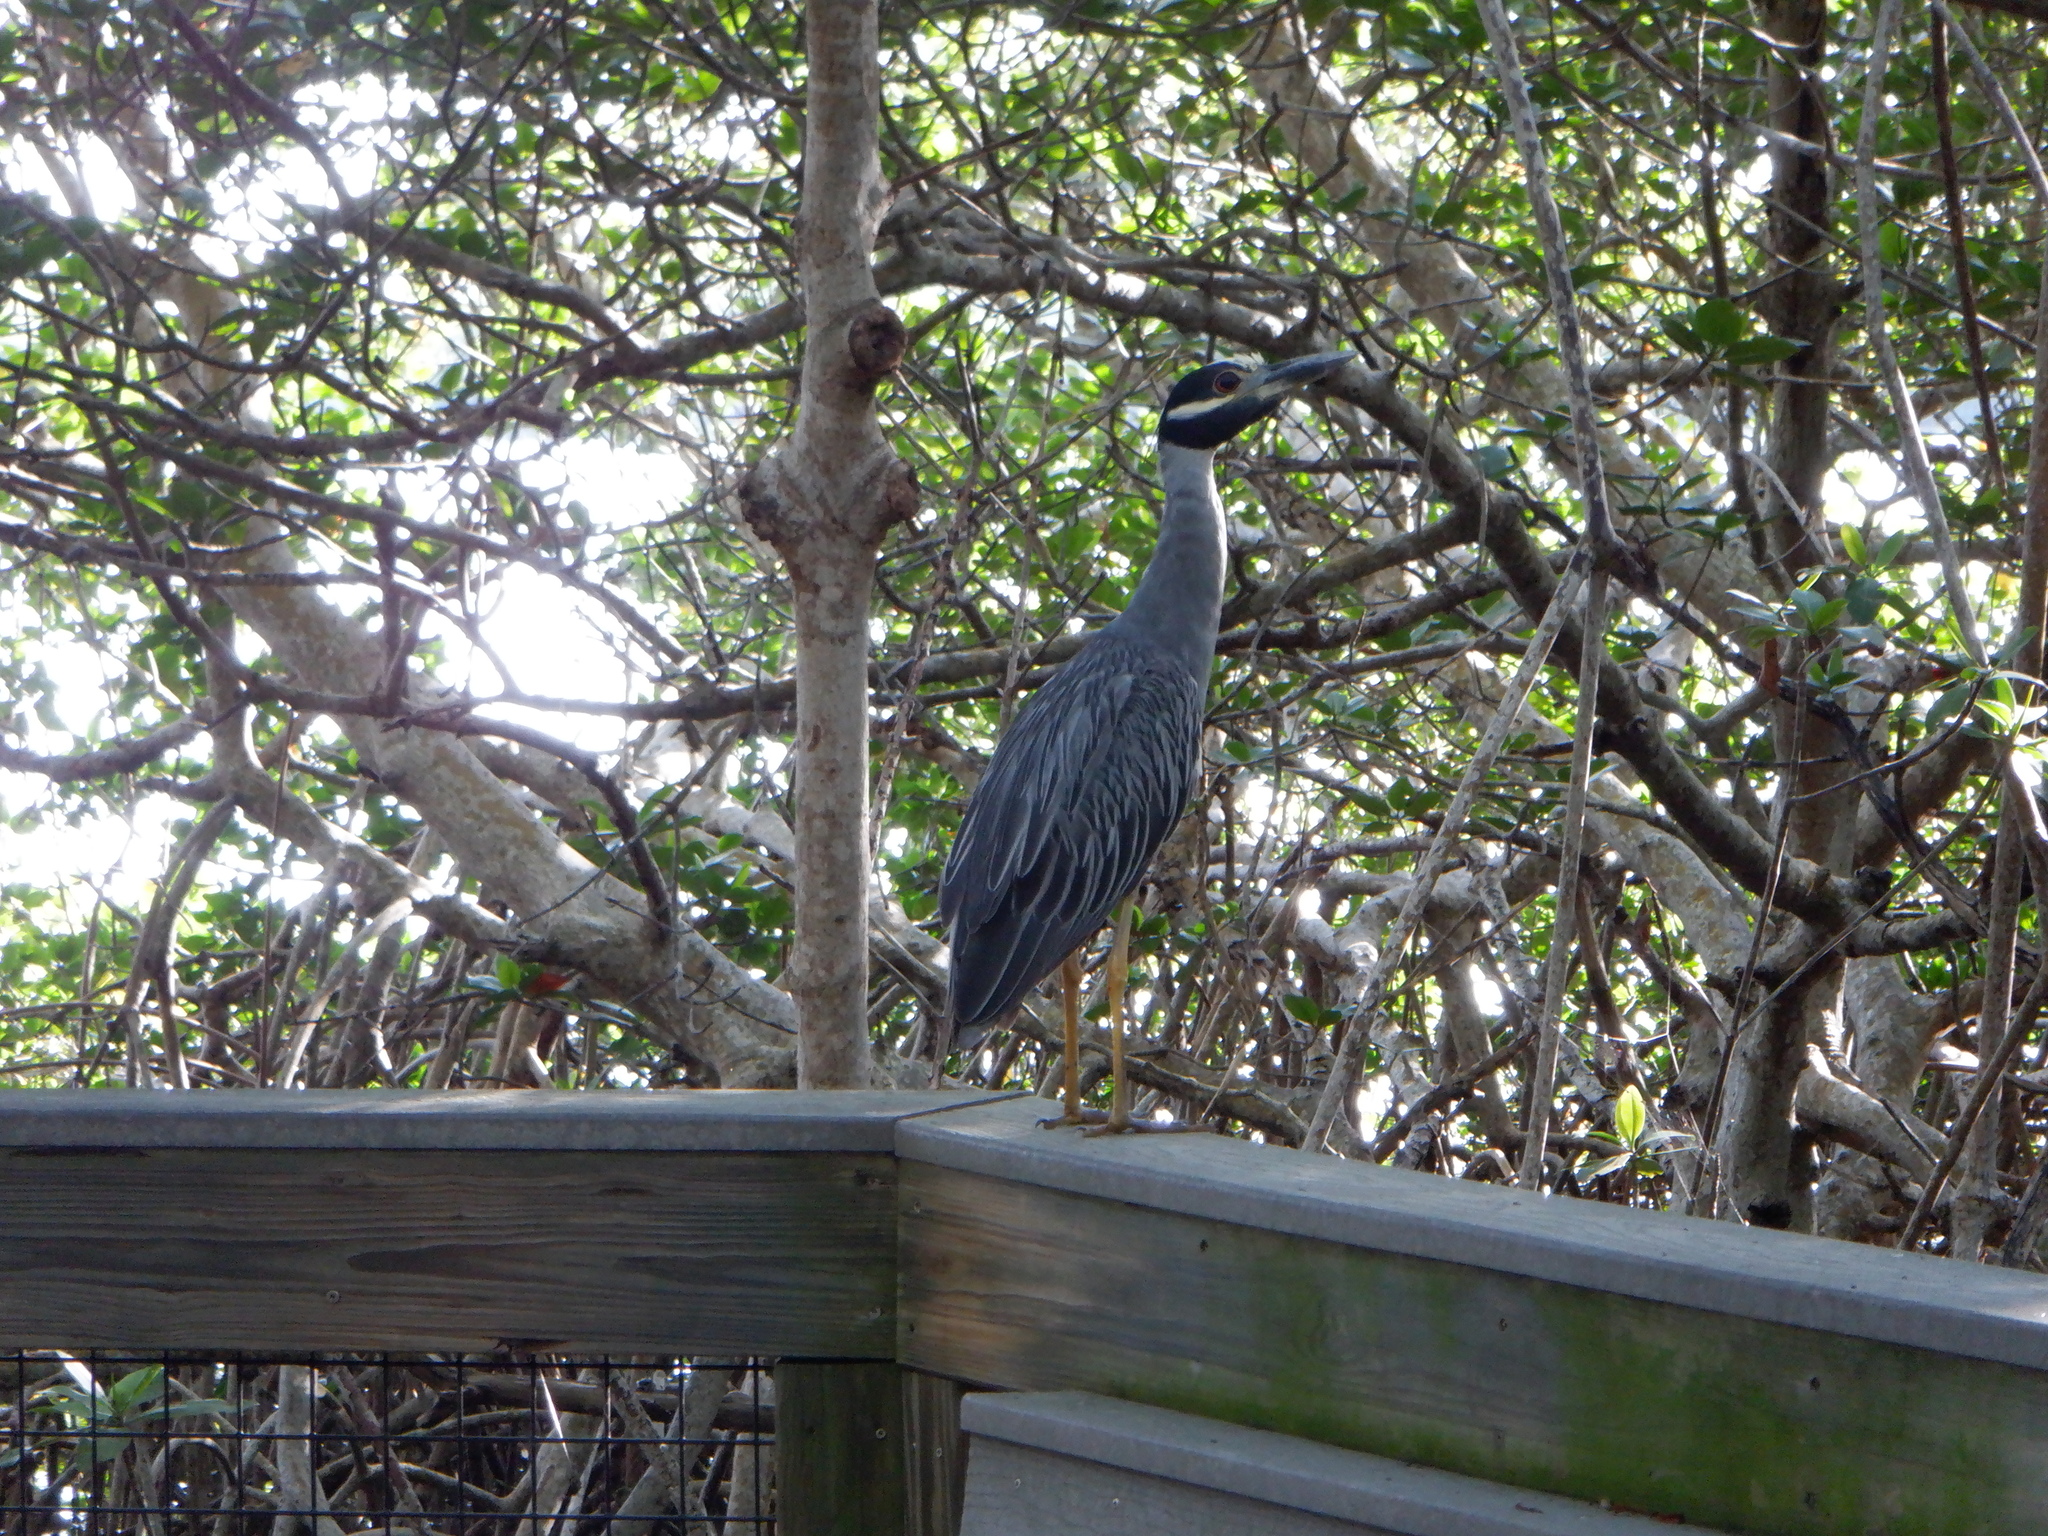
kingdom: Animalia
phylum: Chordata
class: Aves
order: Pelecaniformes
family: Ardeidae
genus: Nyctanassa
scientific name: Nyctanassa violacea
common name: Yellow-crowned night heron
